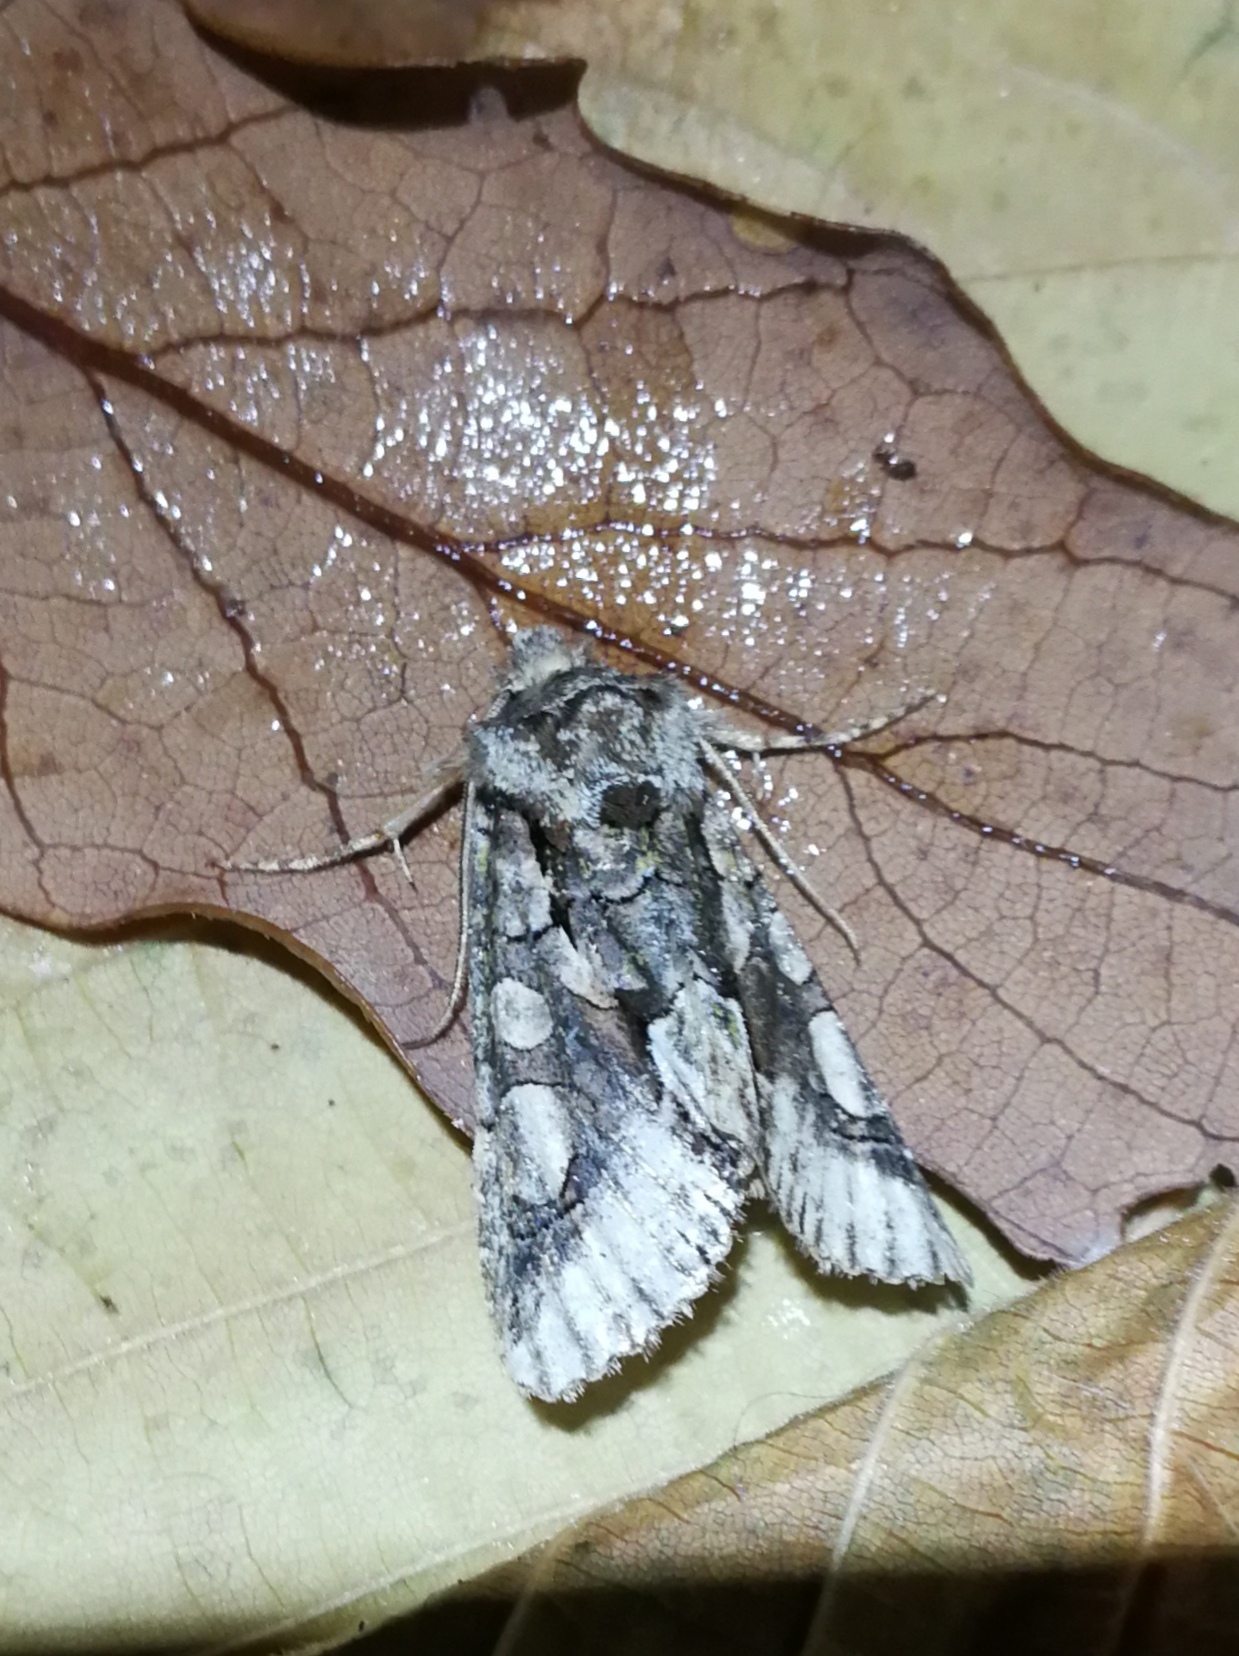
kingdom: Animalia
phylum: Arthropoda
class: Insecta
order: Lepidoptera
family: Noctuidae
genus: Allophyes
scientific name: Allophyes alfaroi
